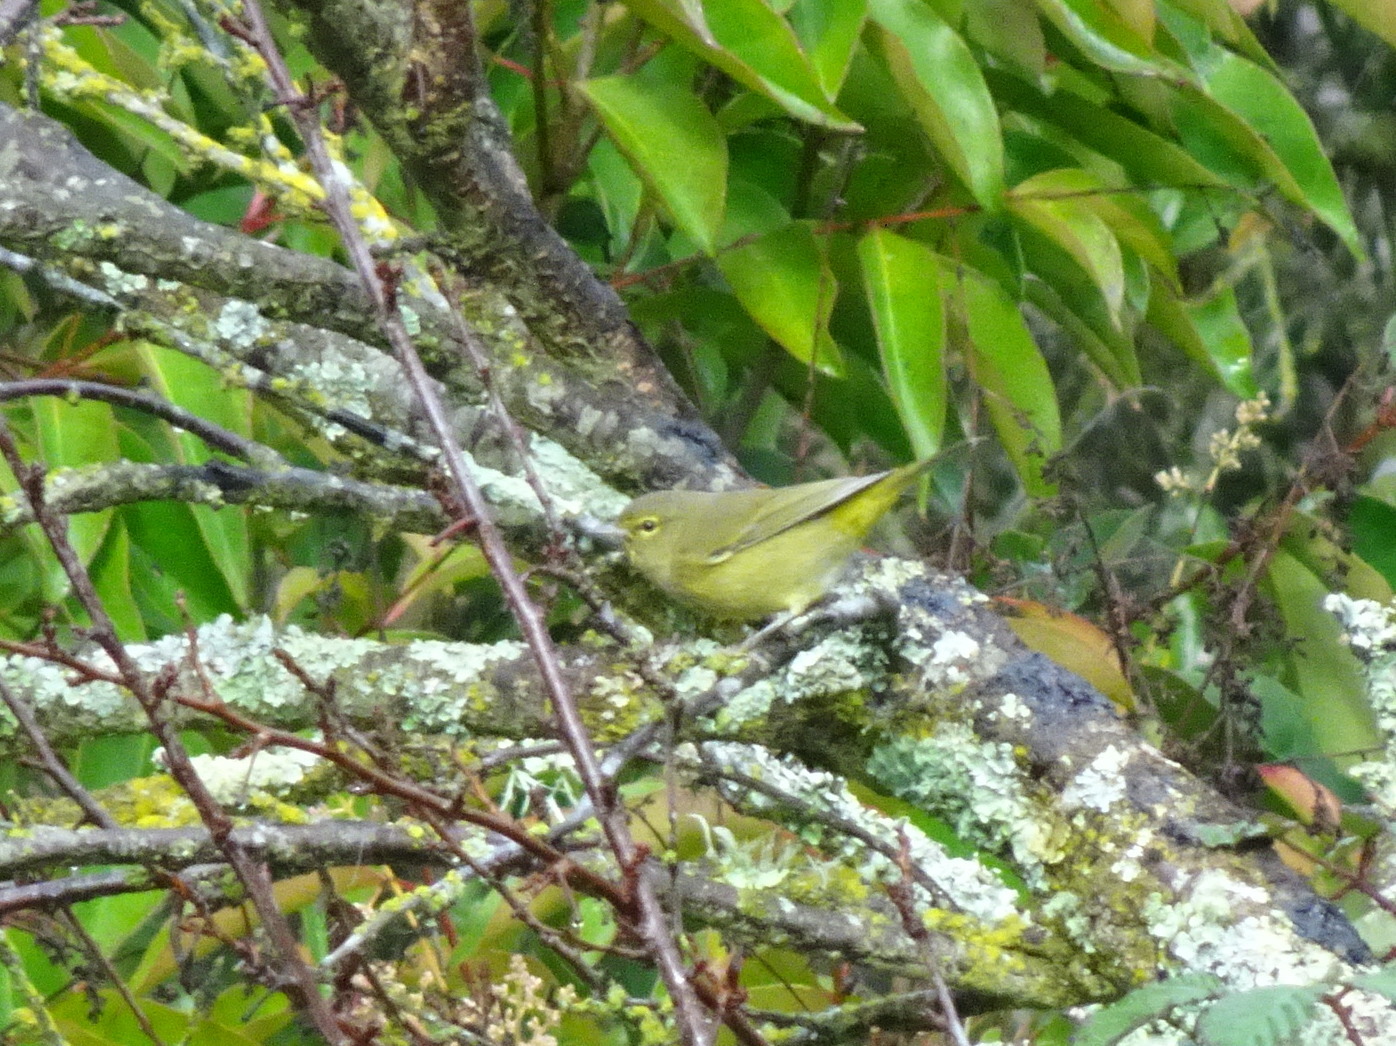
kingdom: Animalia
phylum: Chordata
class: Aves
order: Passeriformes
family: Parulidae
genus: Leiothlypis
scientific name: Leiothlypis celata
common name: Orange-crowned warbler
